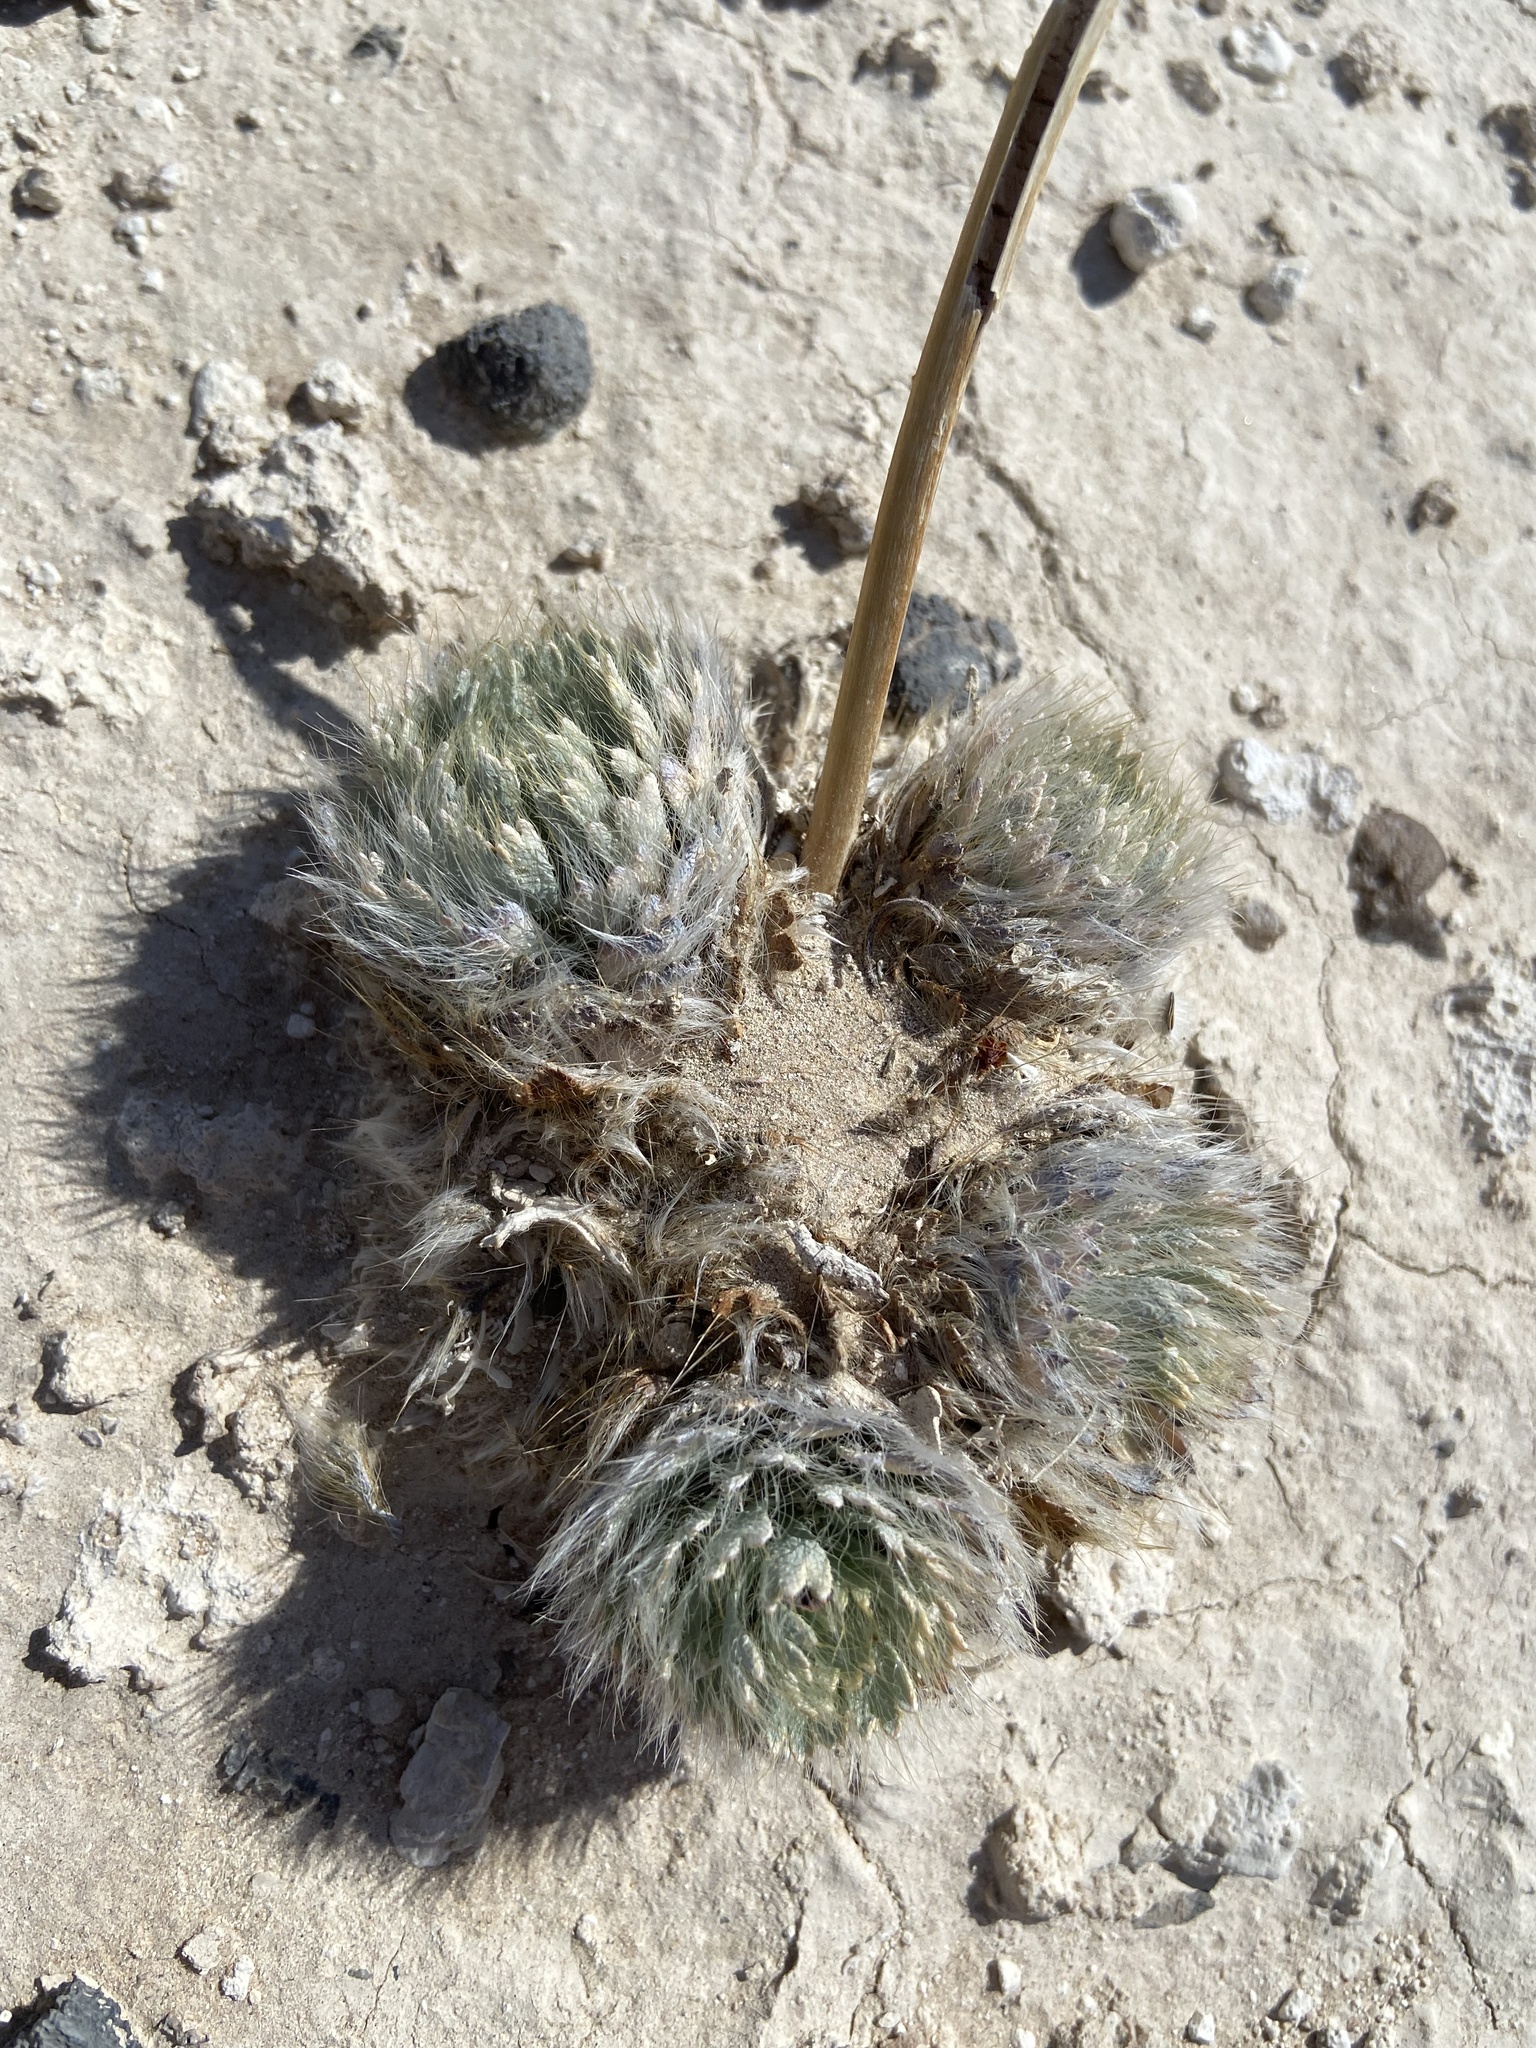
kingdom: Plantae
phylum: Tracheophyta
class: Magnoliopsida
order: Ranunculales
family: Papaveraceae
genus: Arctomecon
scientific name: Arctomecon californicum
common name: Golden bearclaw-poppy
